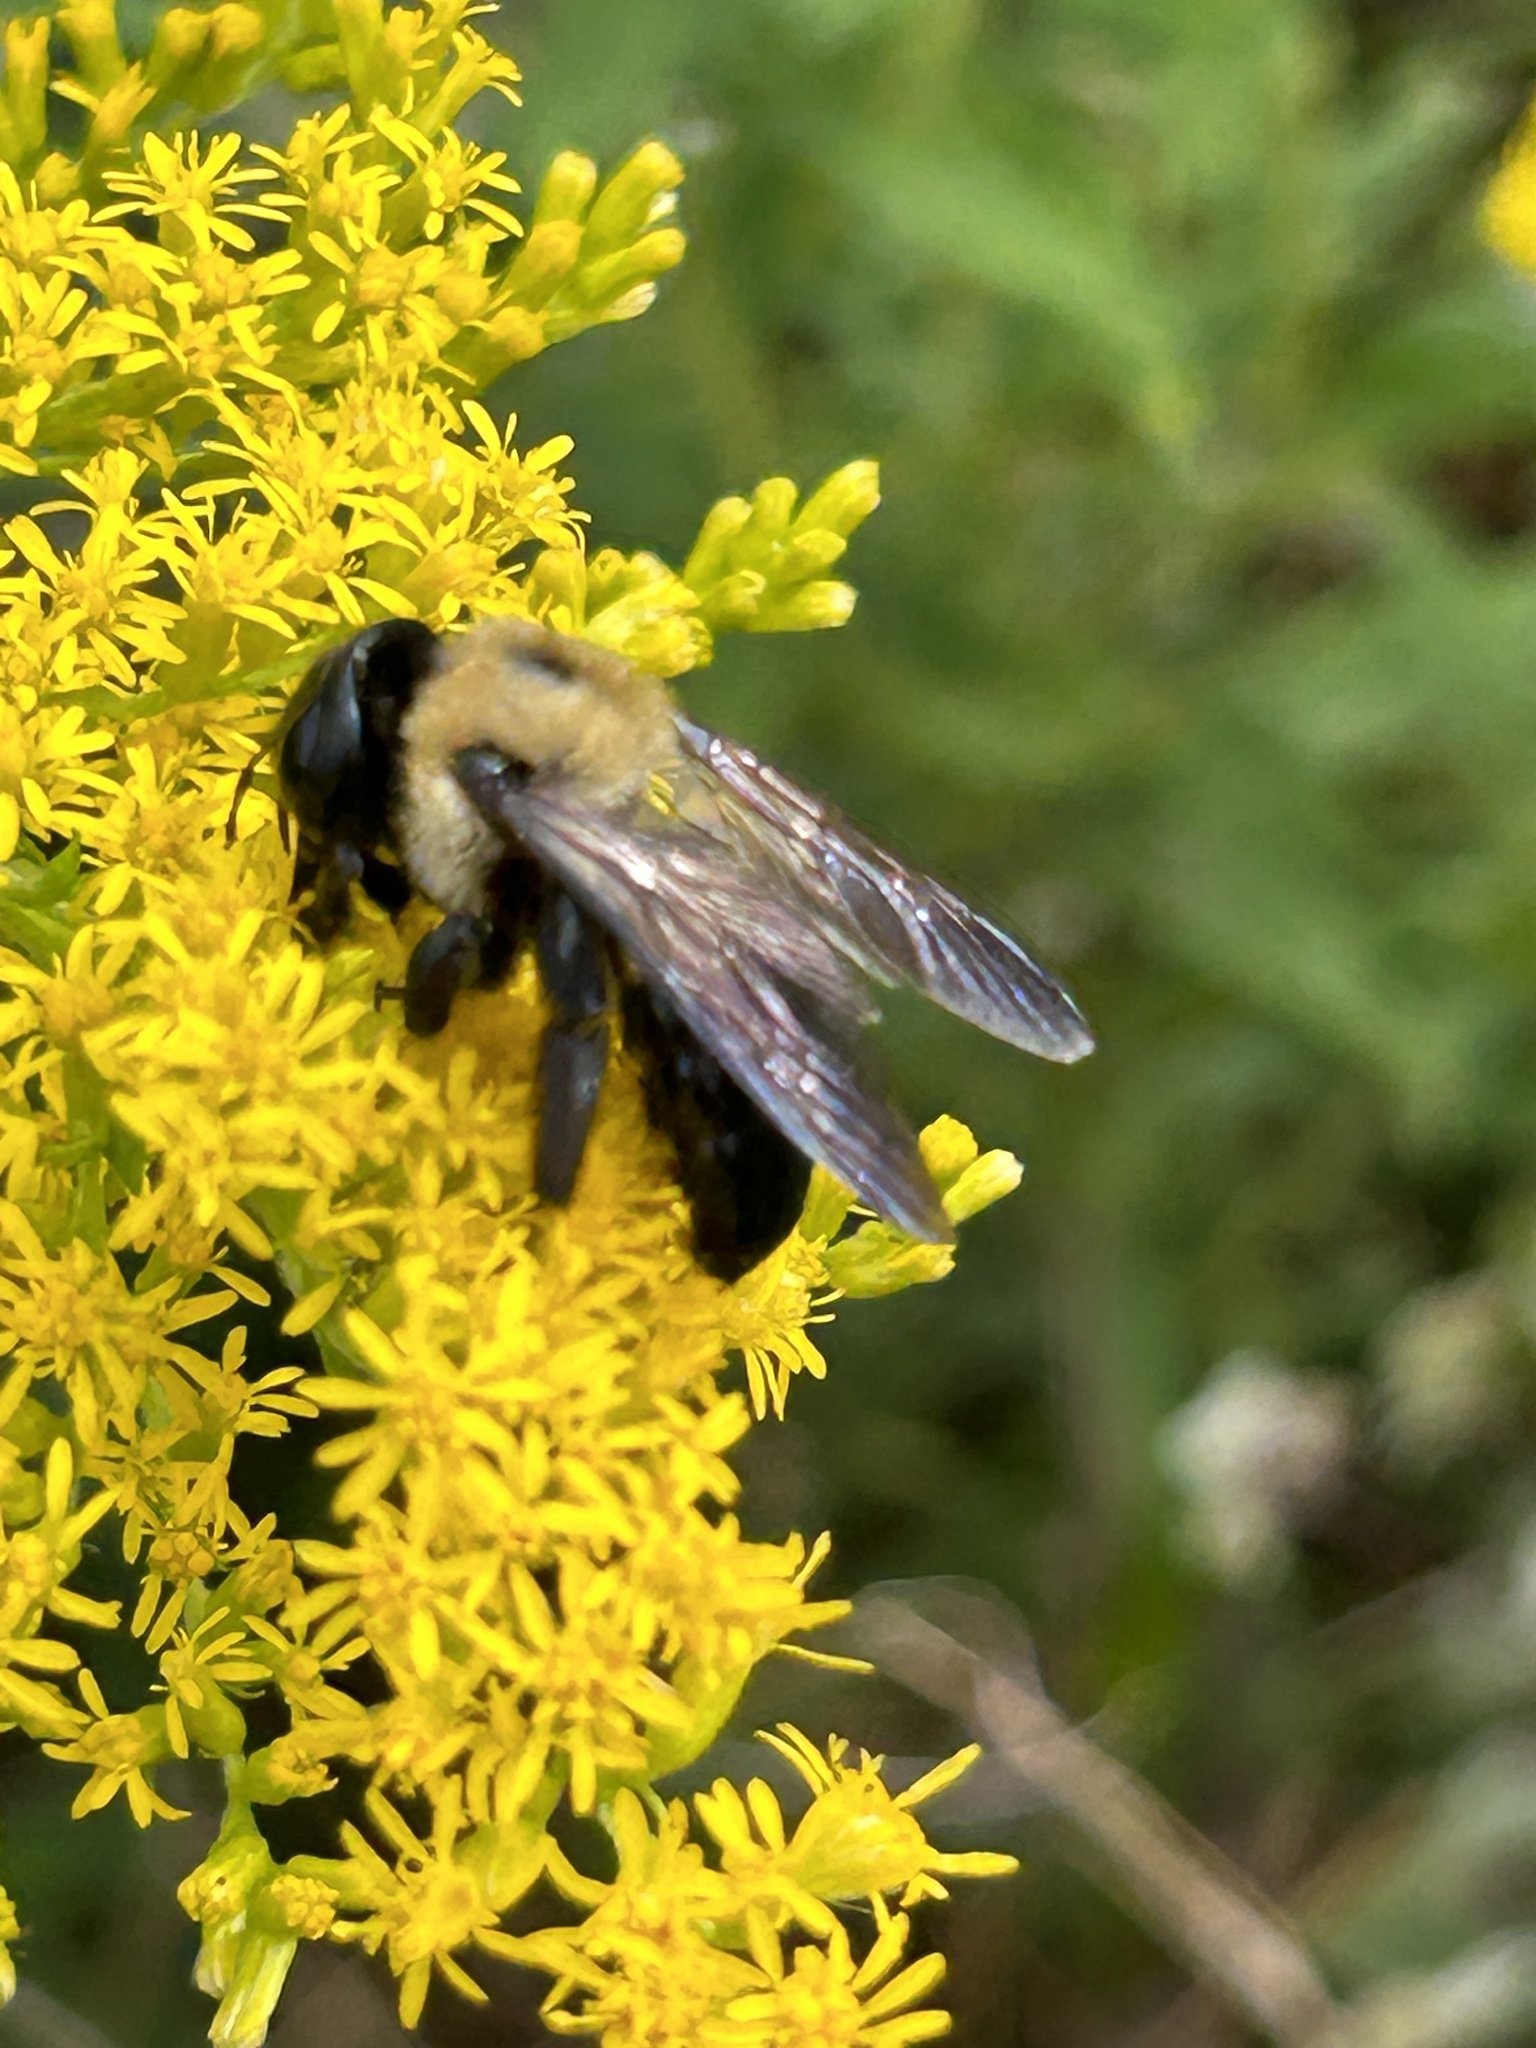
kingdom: Animalia
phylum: Arthropoda
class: Insecta
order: Hymenoptera
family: Apidae
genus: Xylocopa
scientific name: Xylocopa virginica
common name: Carpenter bee
